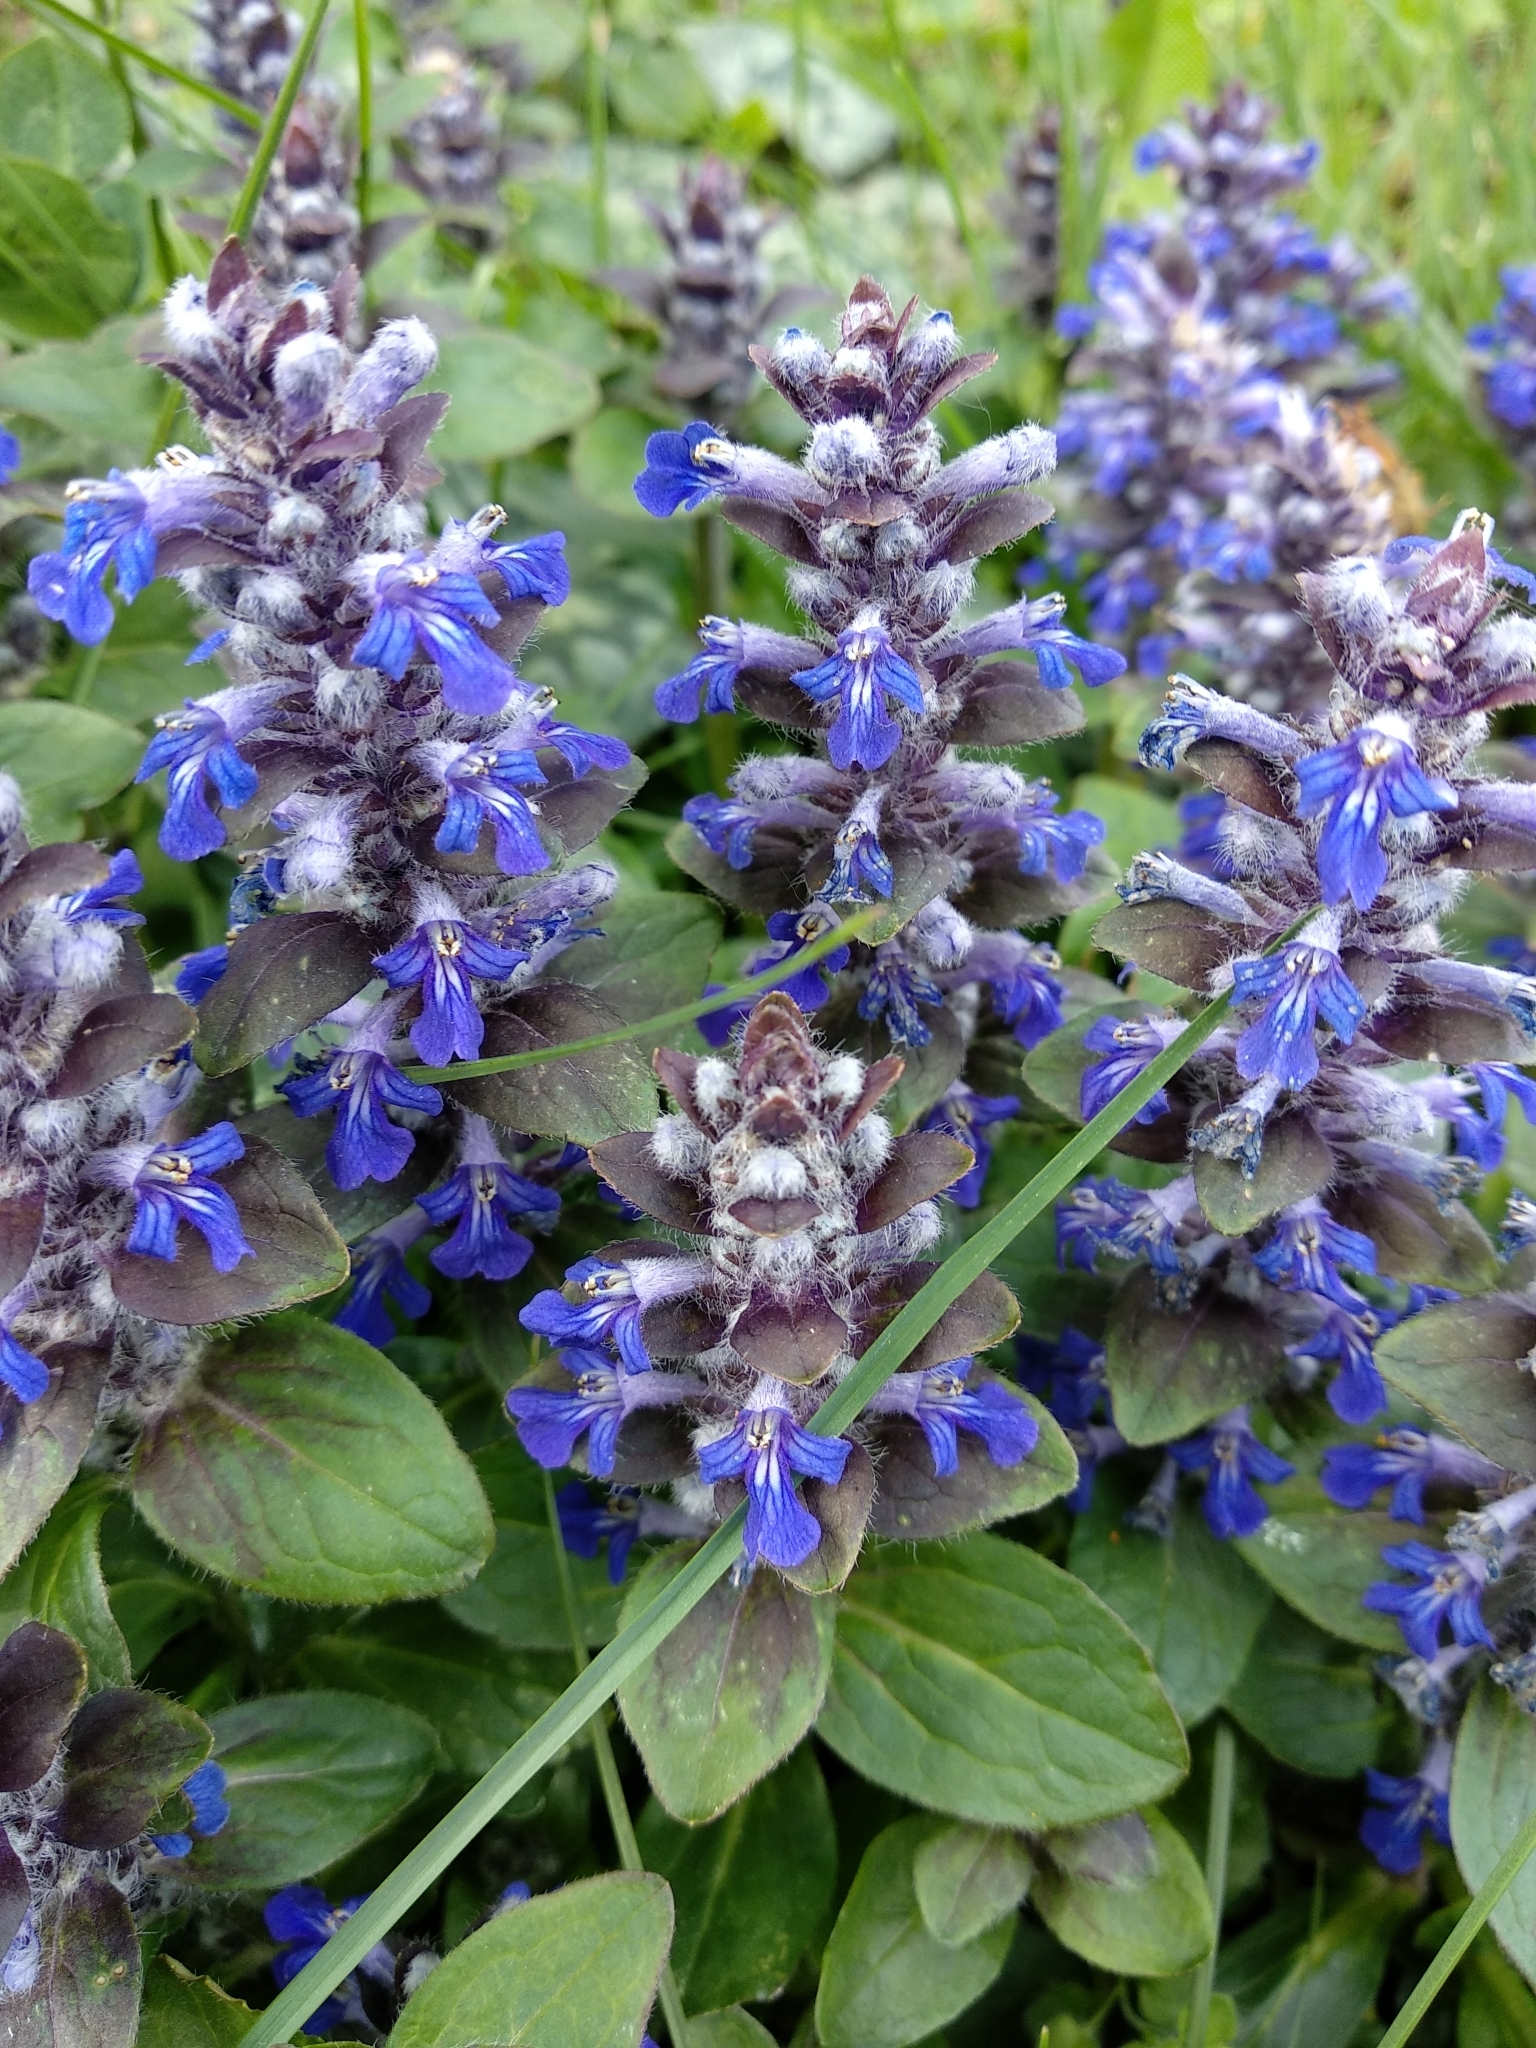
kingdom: Plantae
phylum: Tracheophyta
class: Magnoliopsida
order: Lamiales
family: Lamiaceae
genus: Ajuga
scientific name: Ajuga reptans
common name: Bugle
